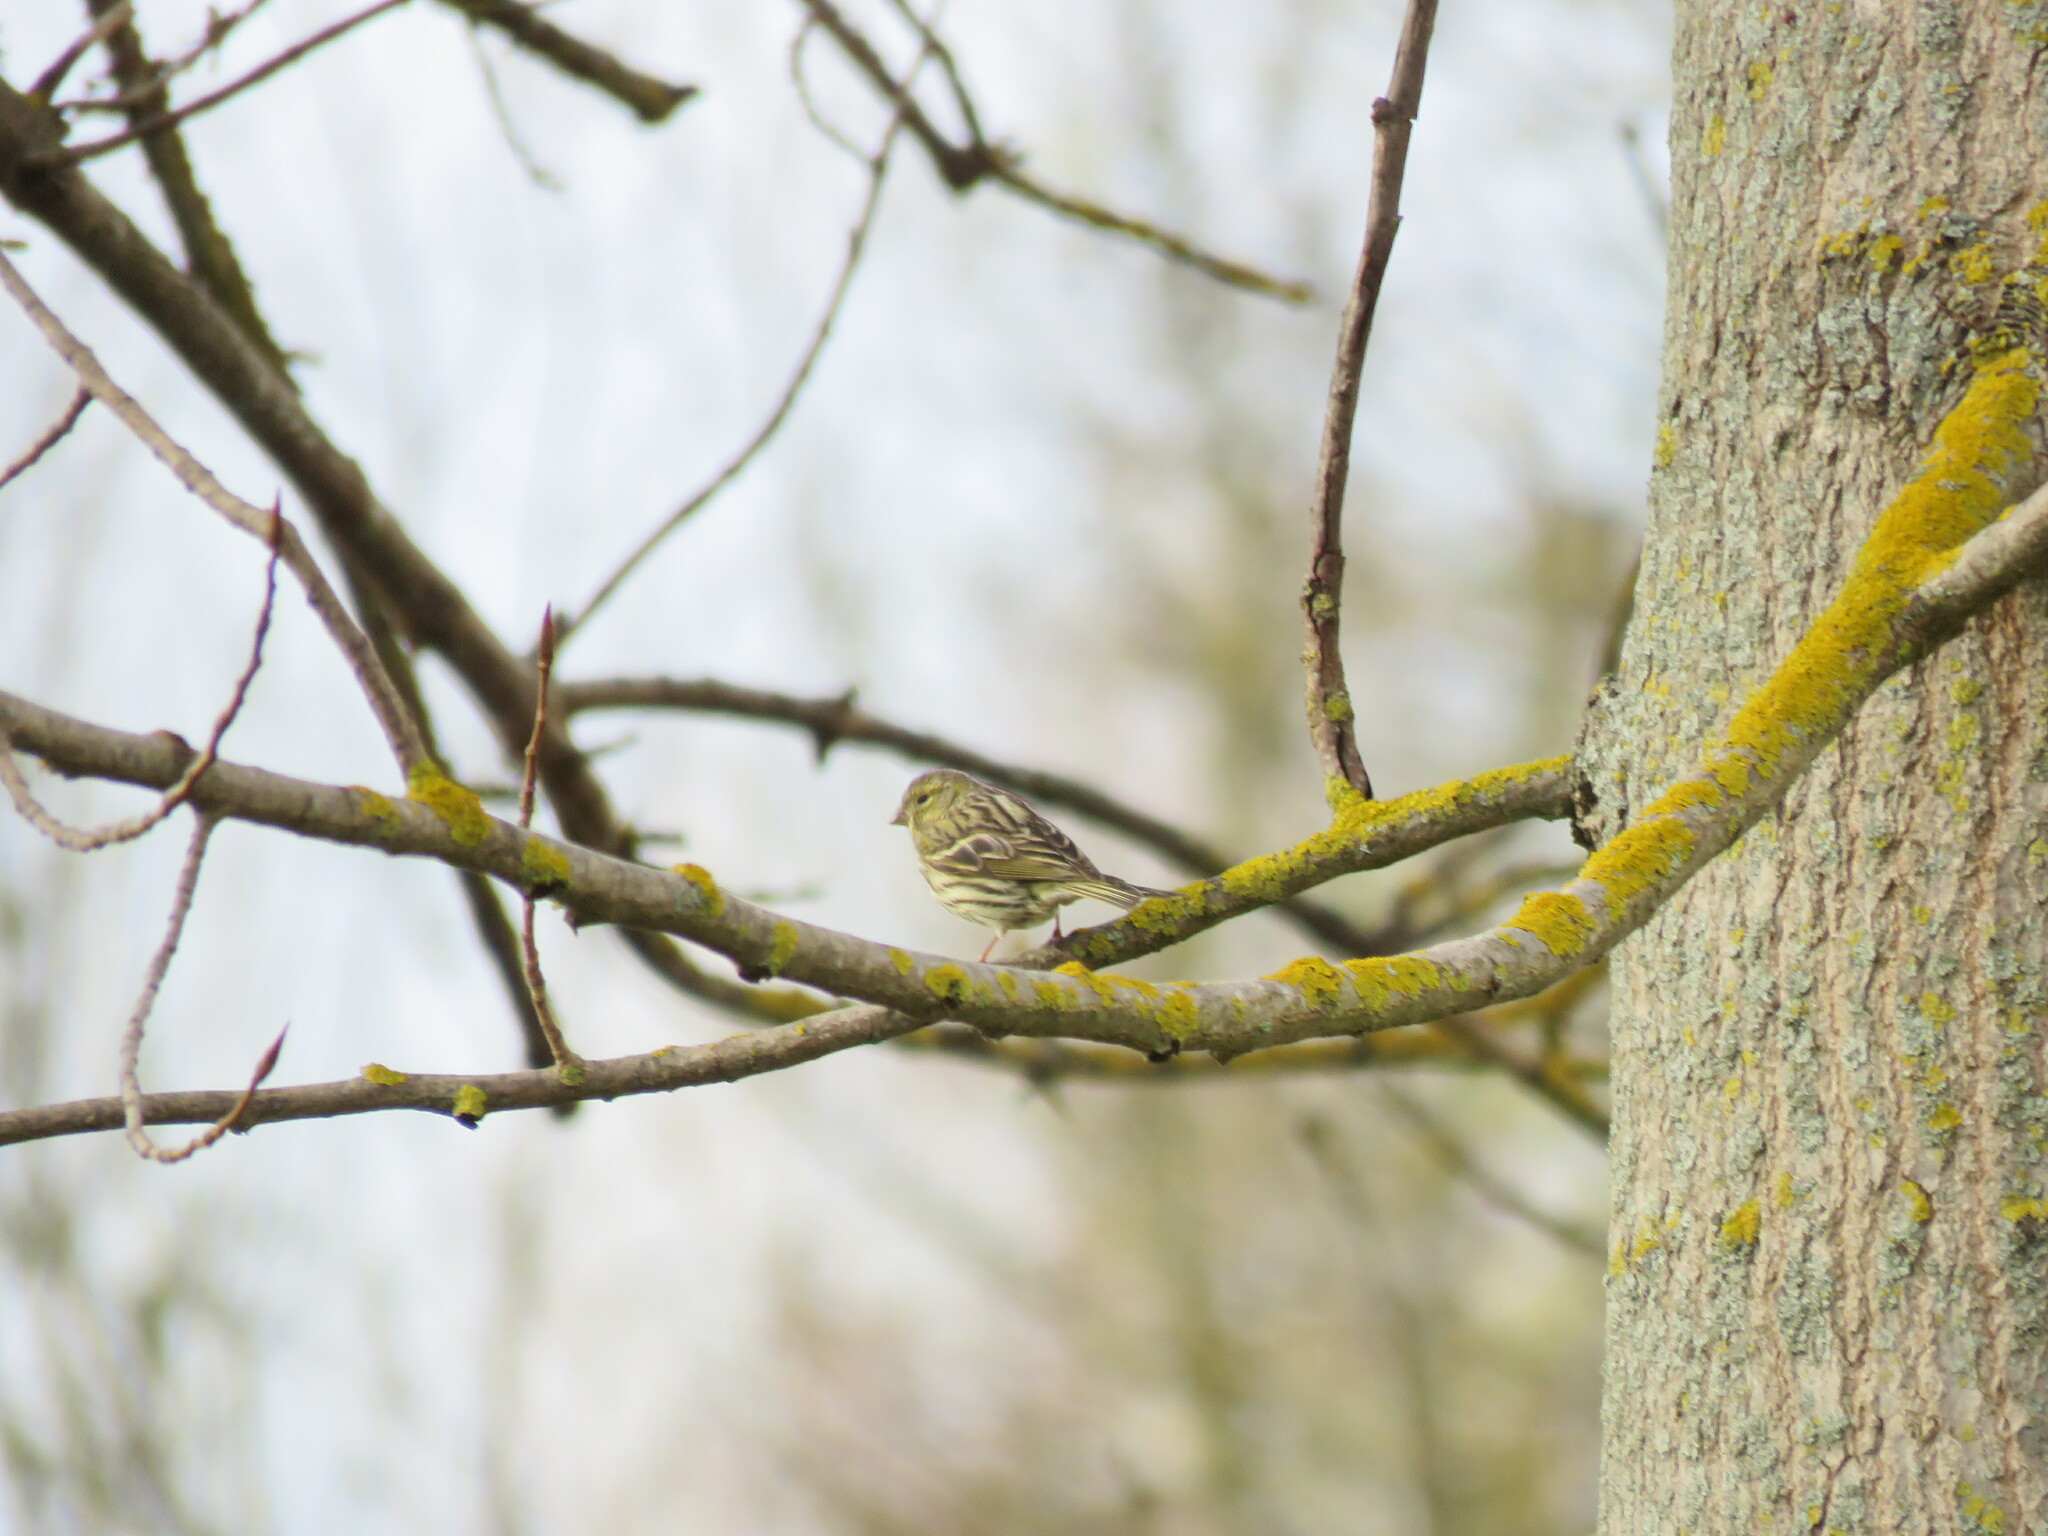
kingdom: Animalia
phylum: Chordata
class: Aves
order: Passeriformes
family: Fringillidae
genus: Serinus
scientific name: Serinus serinus
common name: European serin
